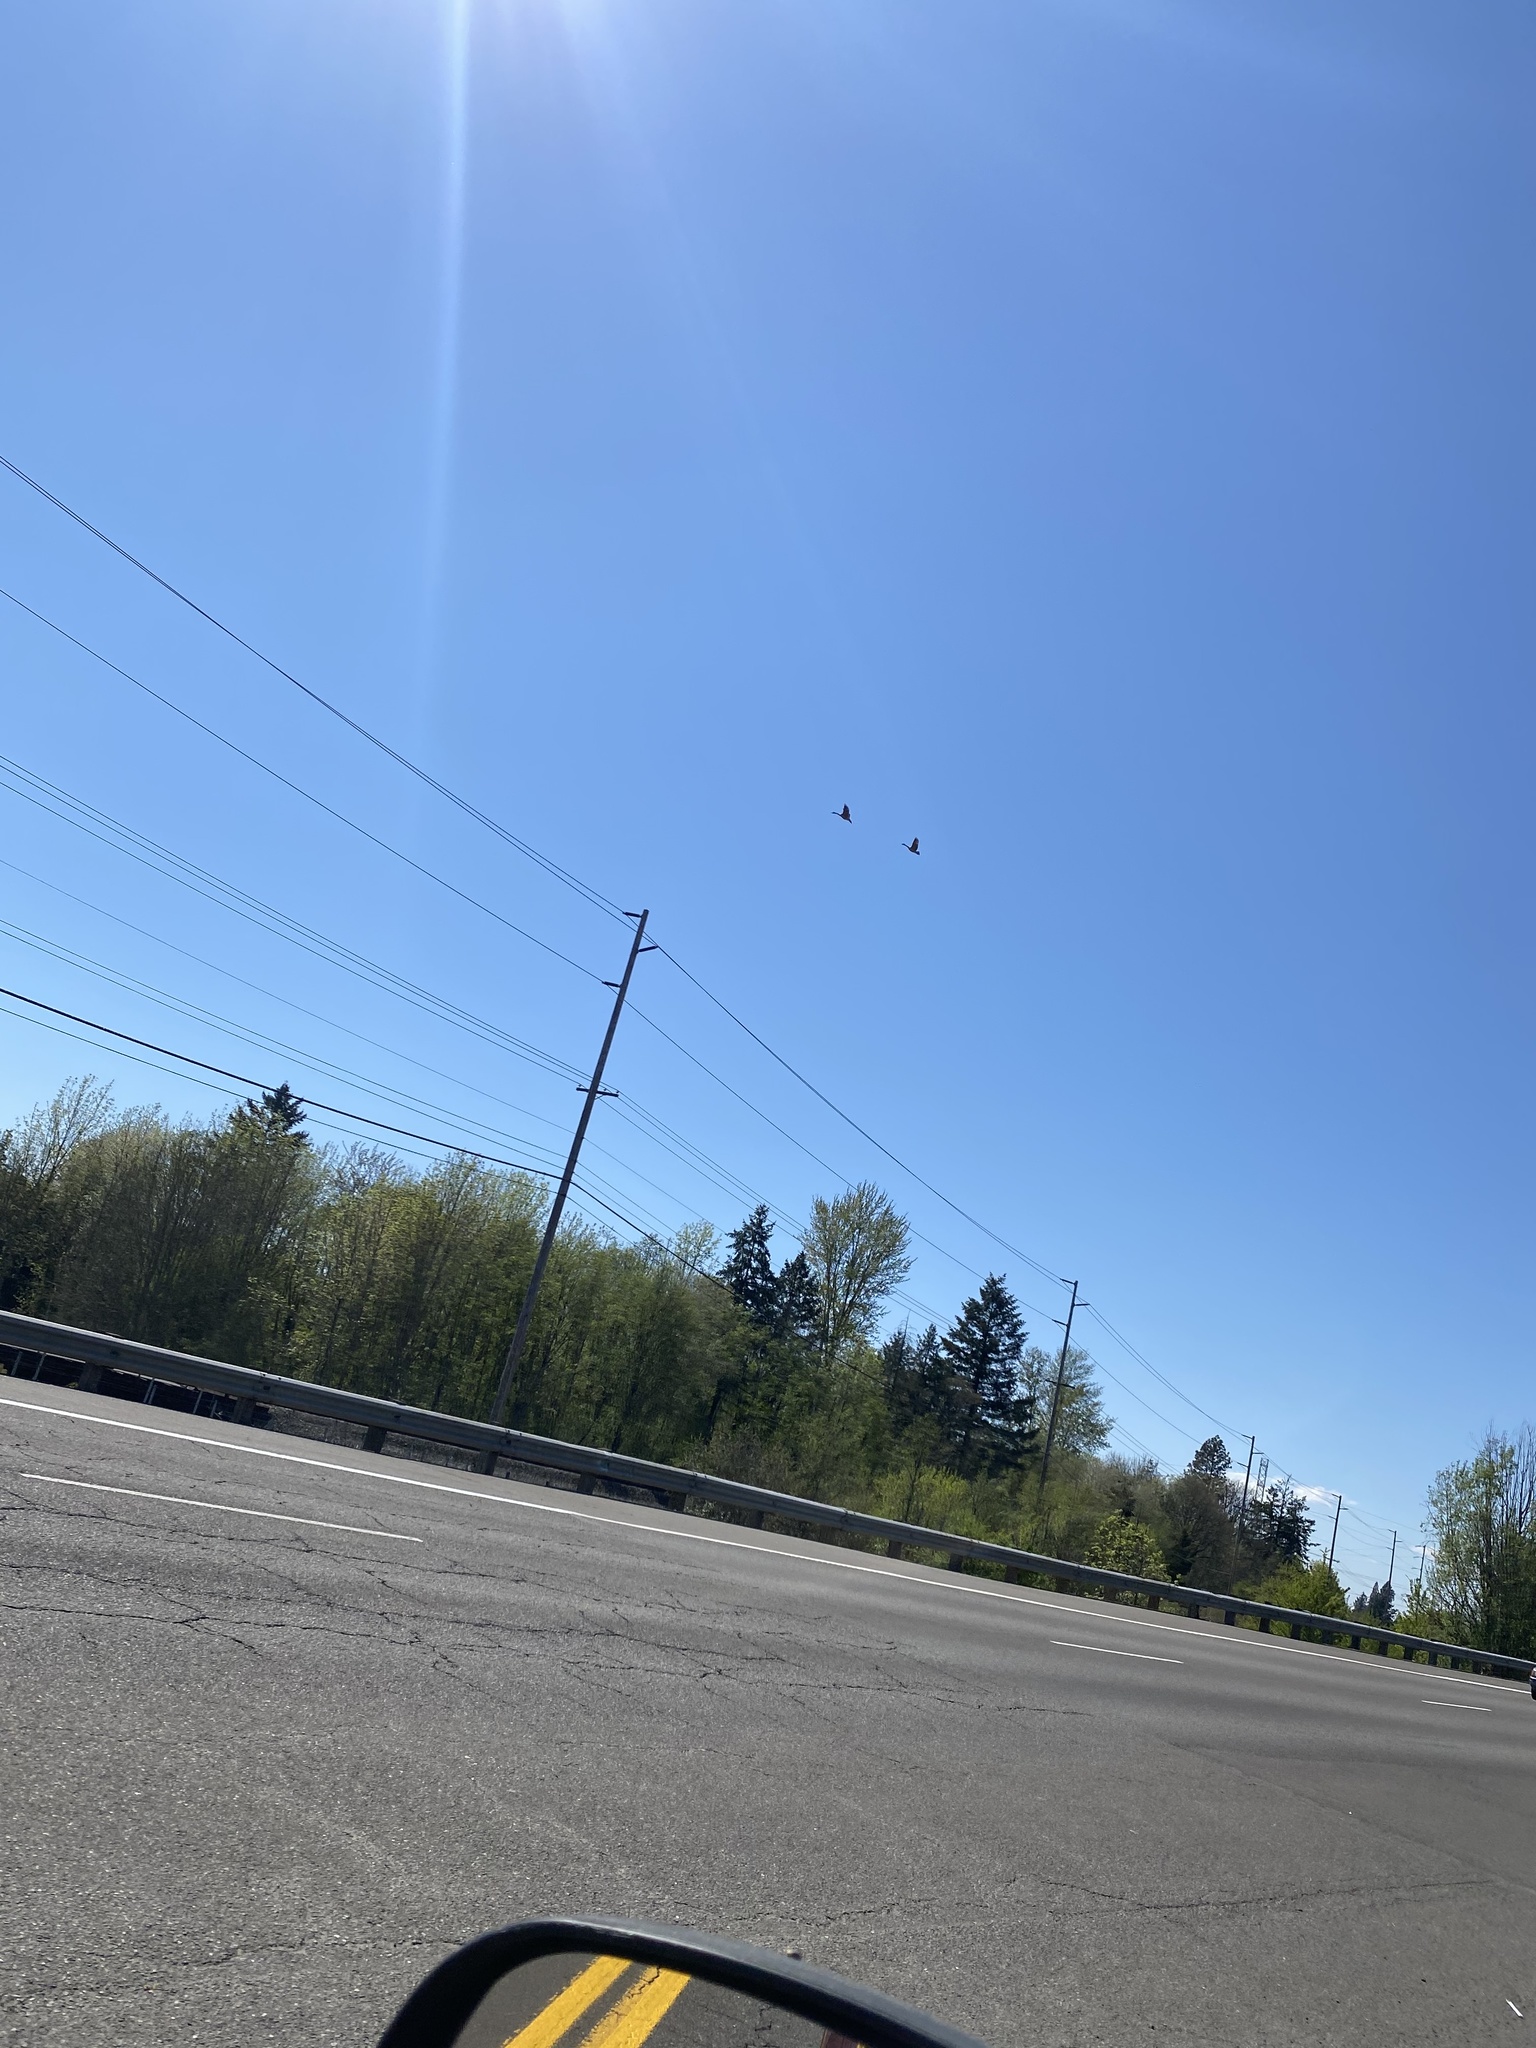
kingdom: Animalia
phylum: Chordata
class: Aves
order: Anseriformes
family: Anatidae
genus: Branta
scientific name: Branta canadensis
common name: Canada goose
